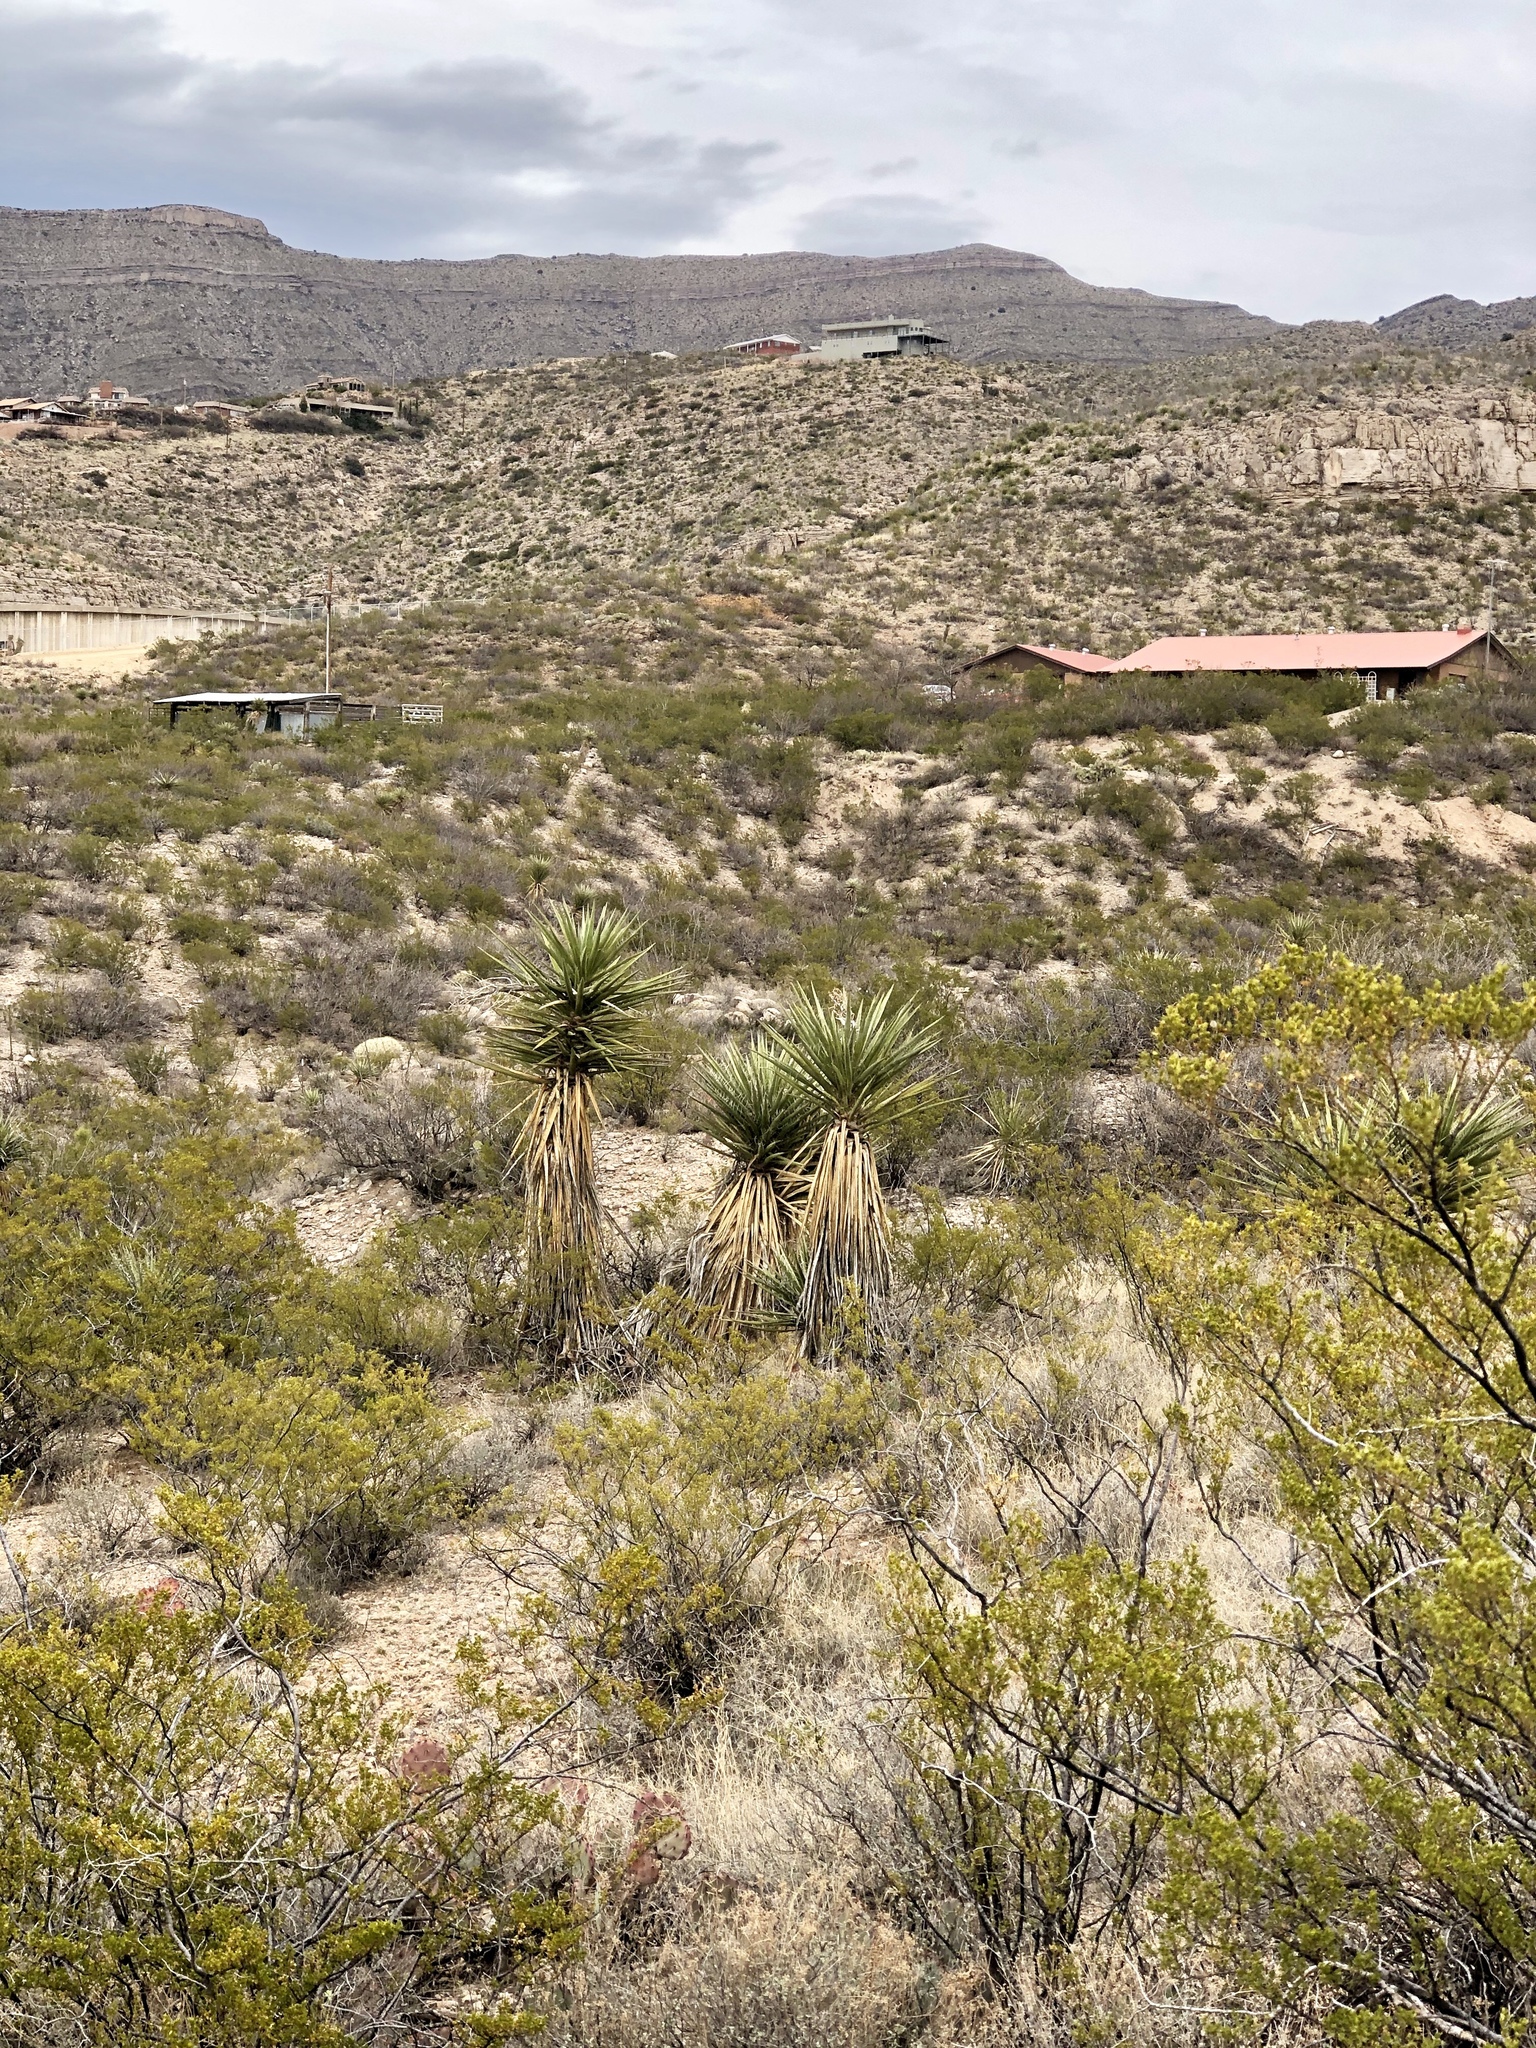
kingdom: Plantae
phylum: Tracheophyta
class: Liliopsida
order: Asparagales
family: Asparagaceae
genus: Yucca
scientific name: Yucca treculiana
